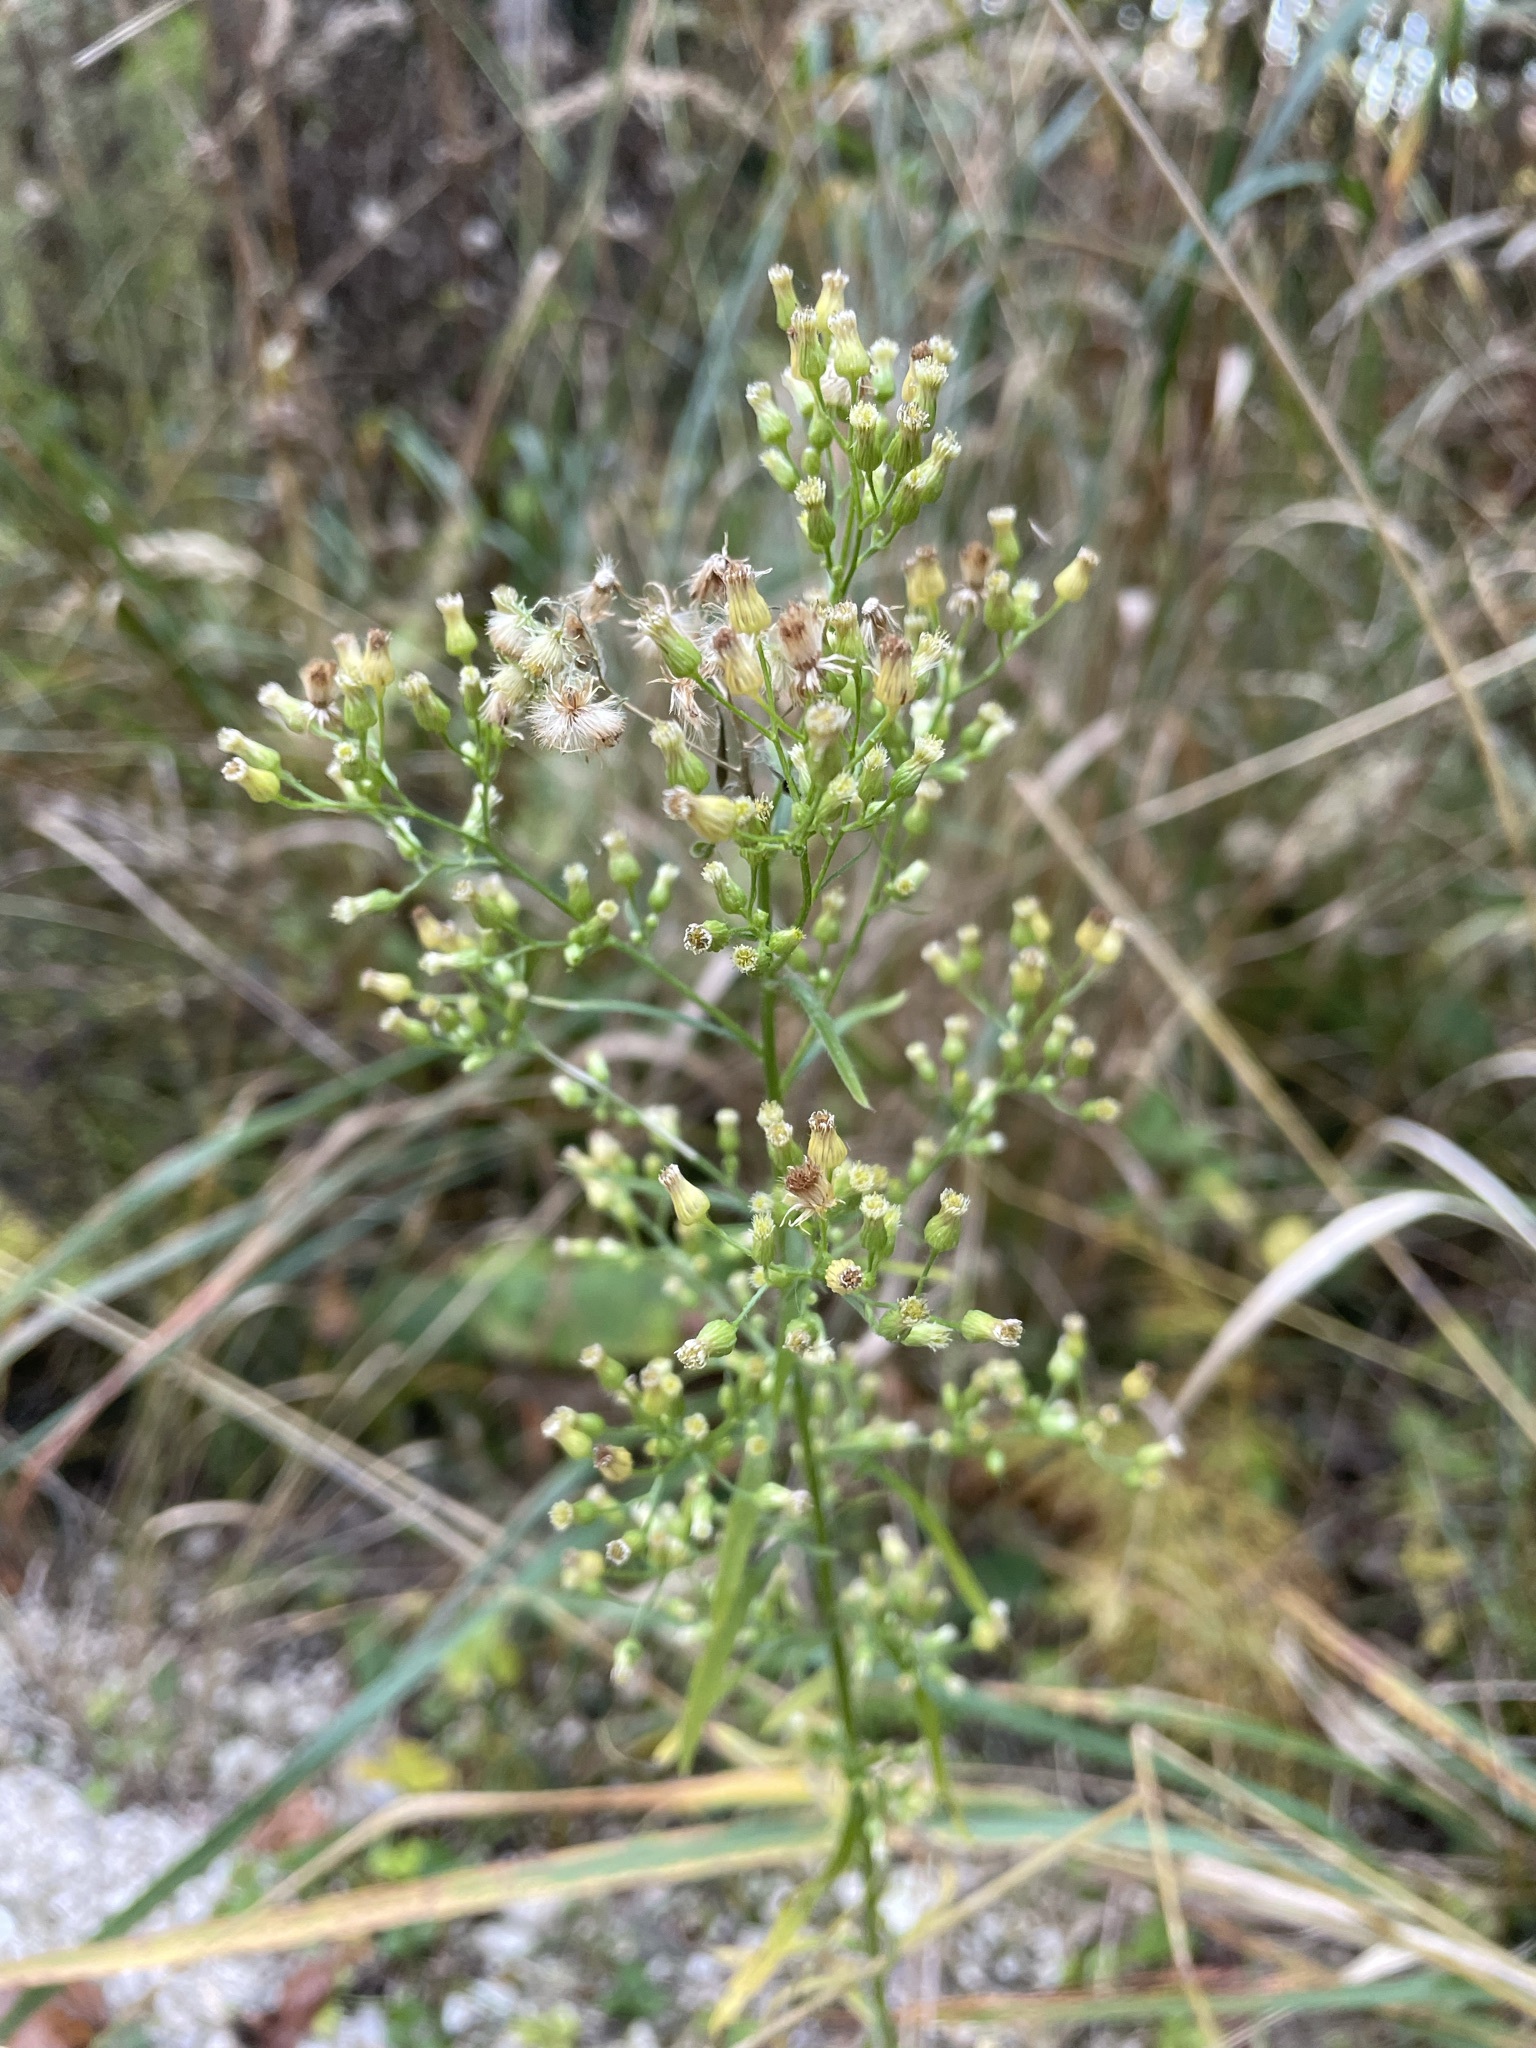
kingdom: Plantae
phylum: Tracheophyta
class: Magnoliopsida
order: Asterales
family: Asteraceae
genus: Erigeron
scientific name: Erigeron canadensis
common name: Canadian fleabane
